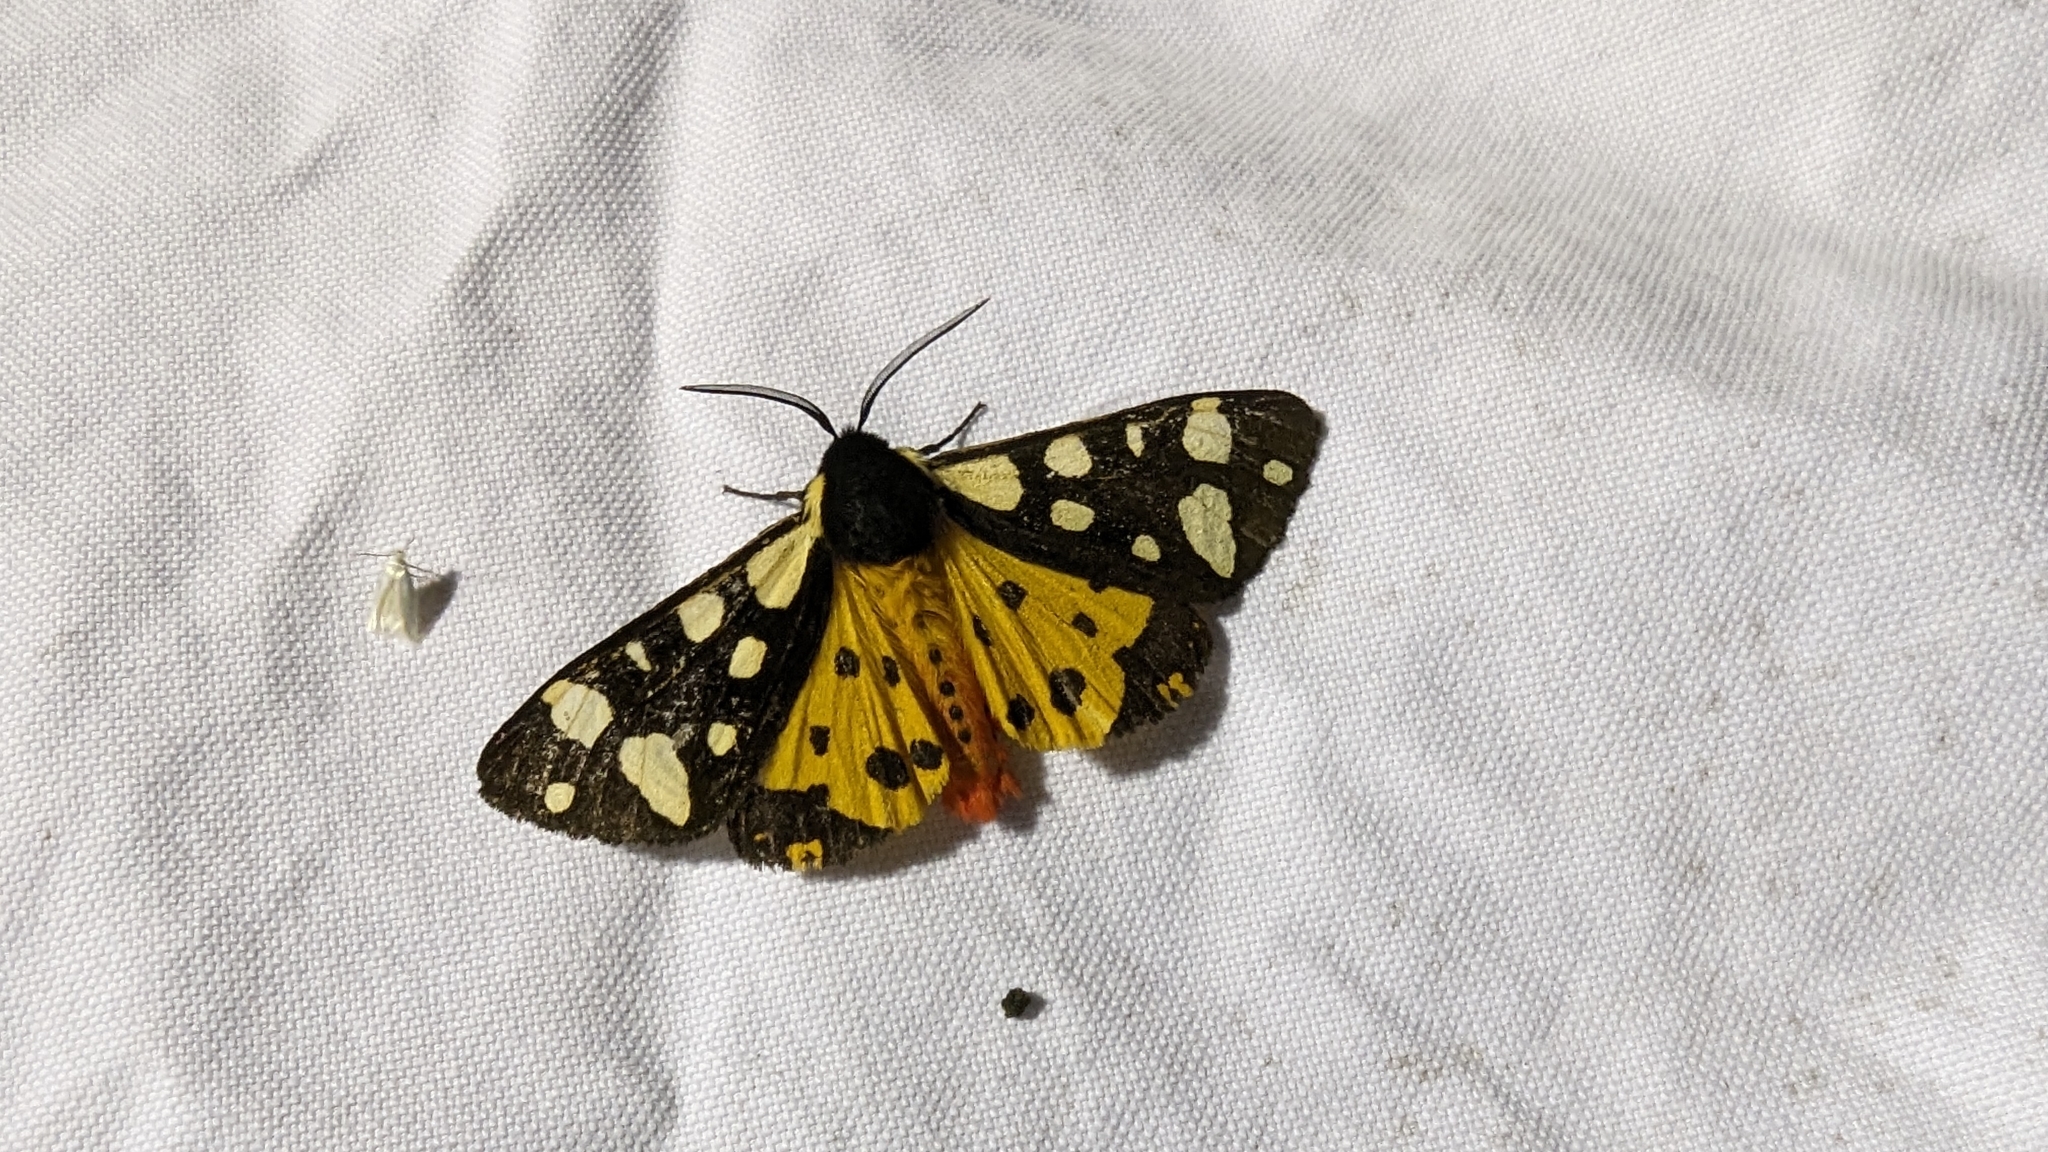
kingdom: Animalia
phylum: Arthropoda
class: Insecta
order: Lepidoptera
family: Erebidae
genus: Epicallia
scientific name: Epicallia villica
